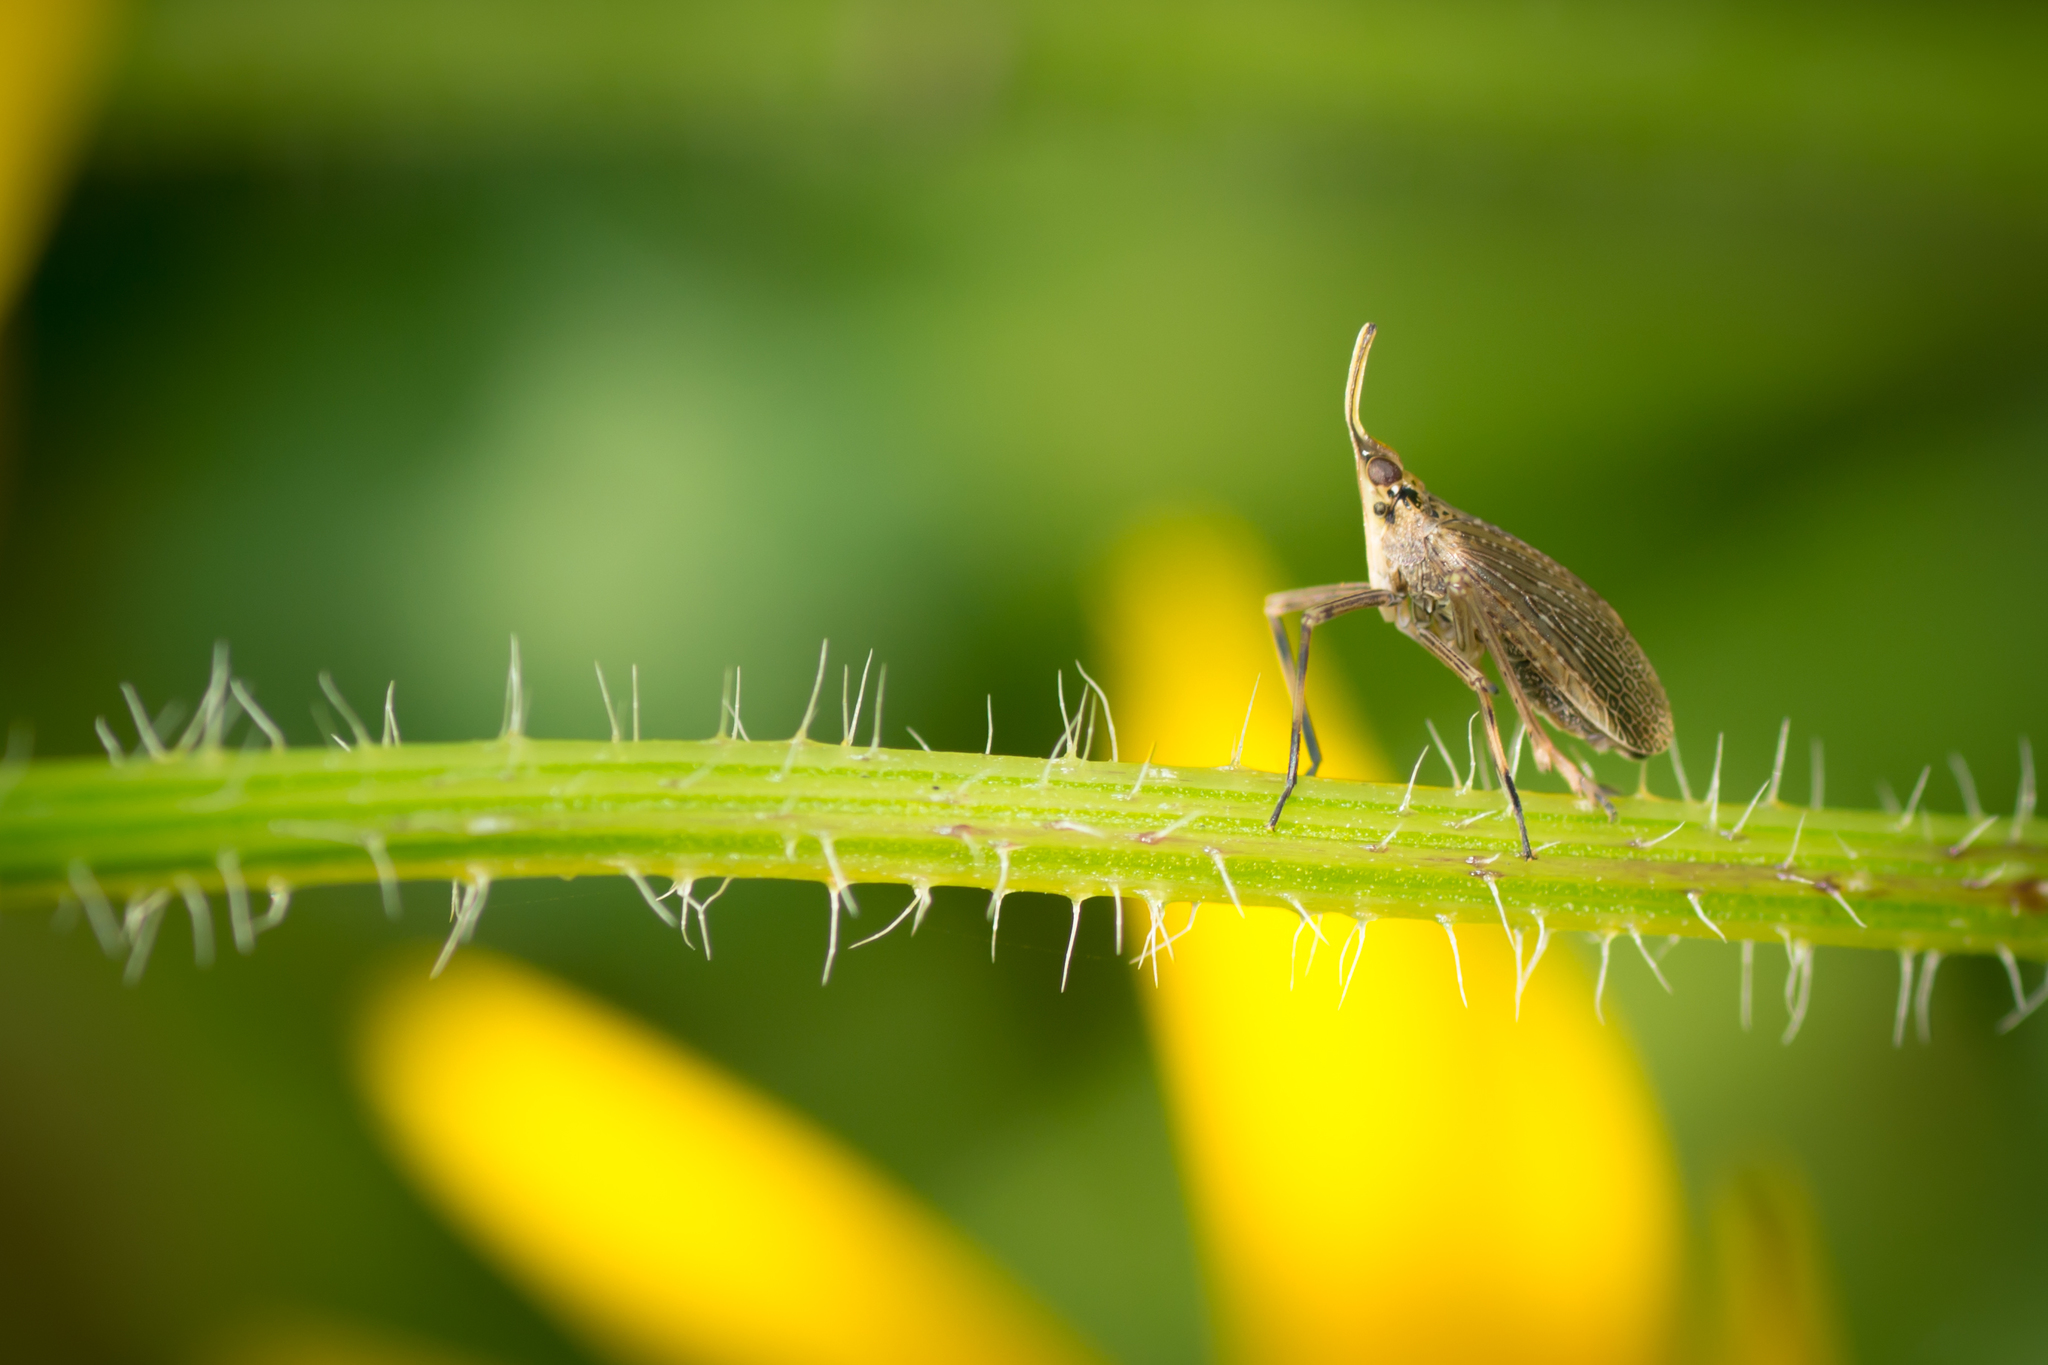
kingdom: Animalia
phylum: Arthropoda
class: Insecta
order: Hemiptera
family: Dictyopharidae
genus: Scolops
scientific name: Scolops sulcipes
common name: Partridge planthopper
